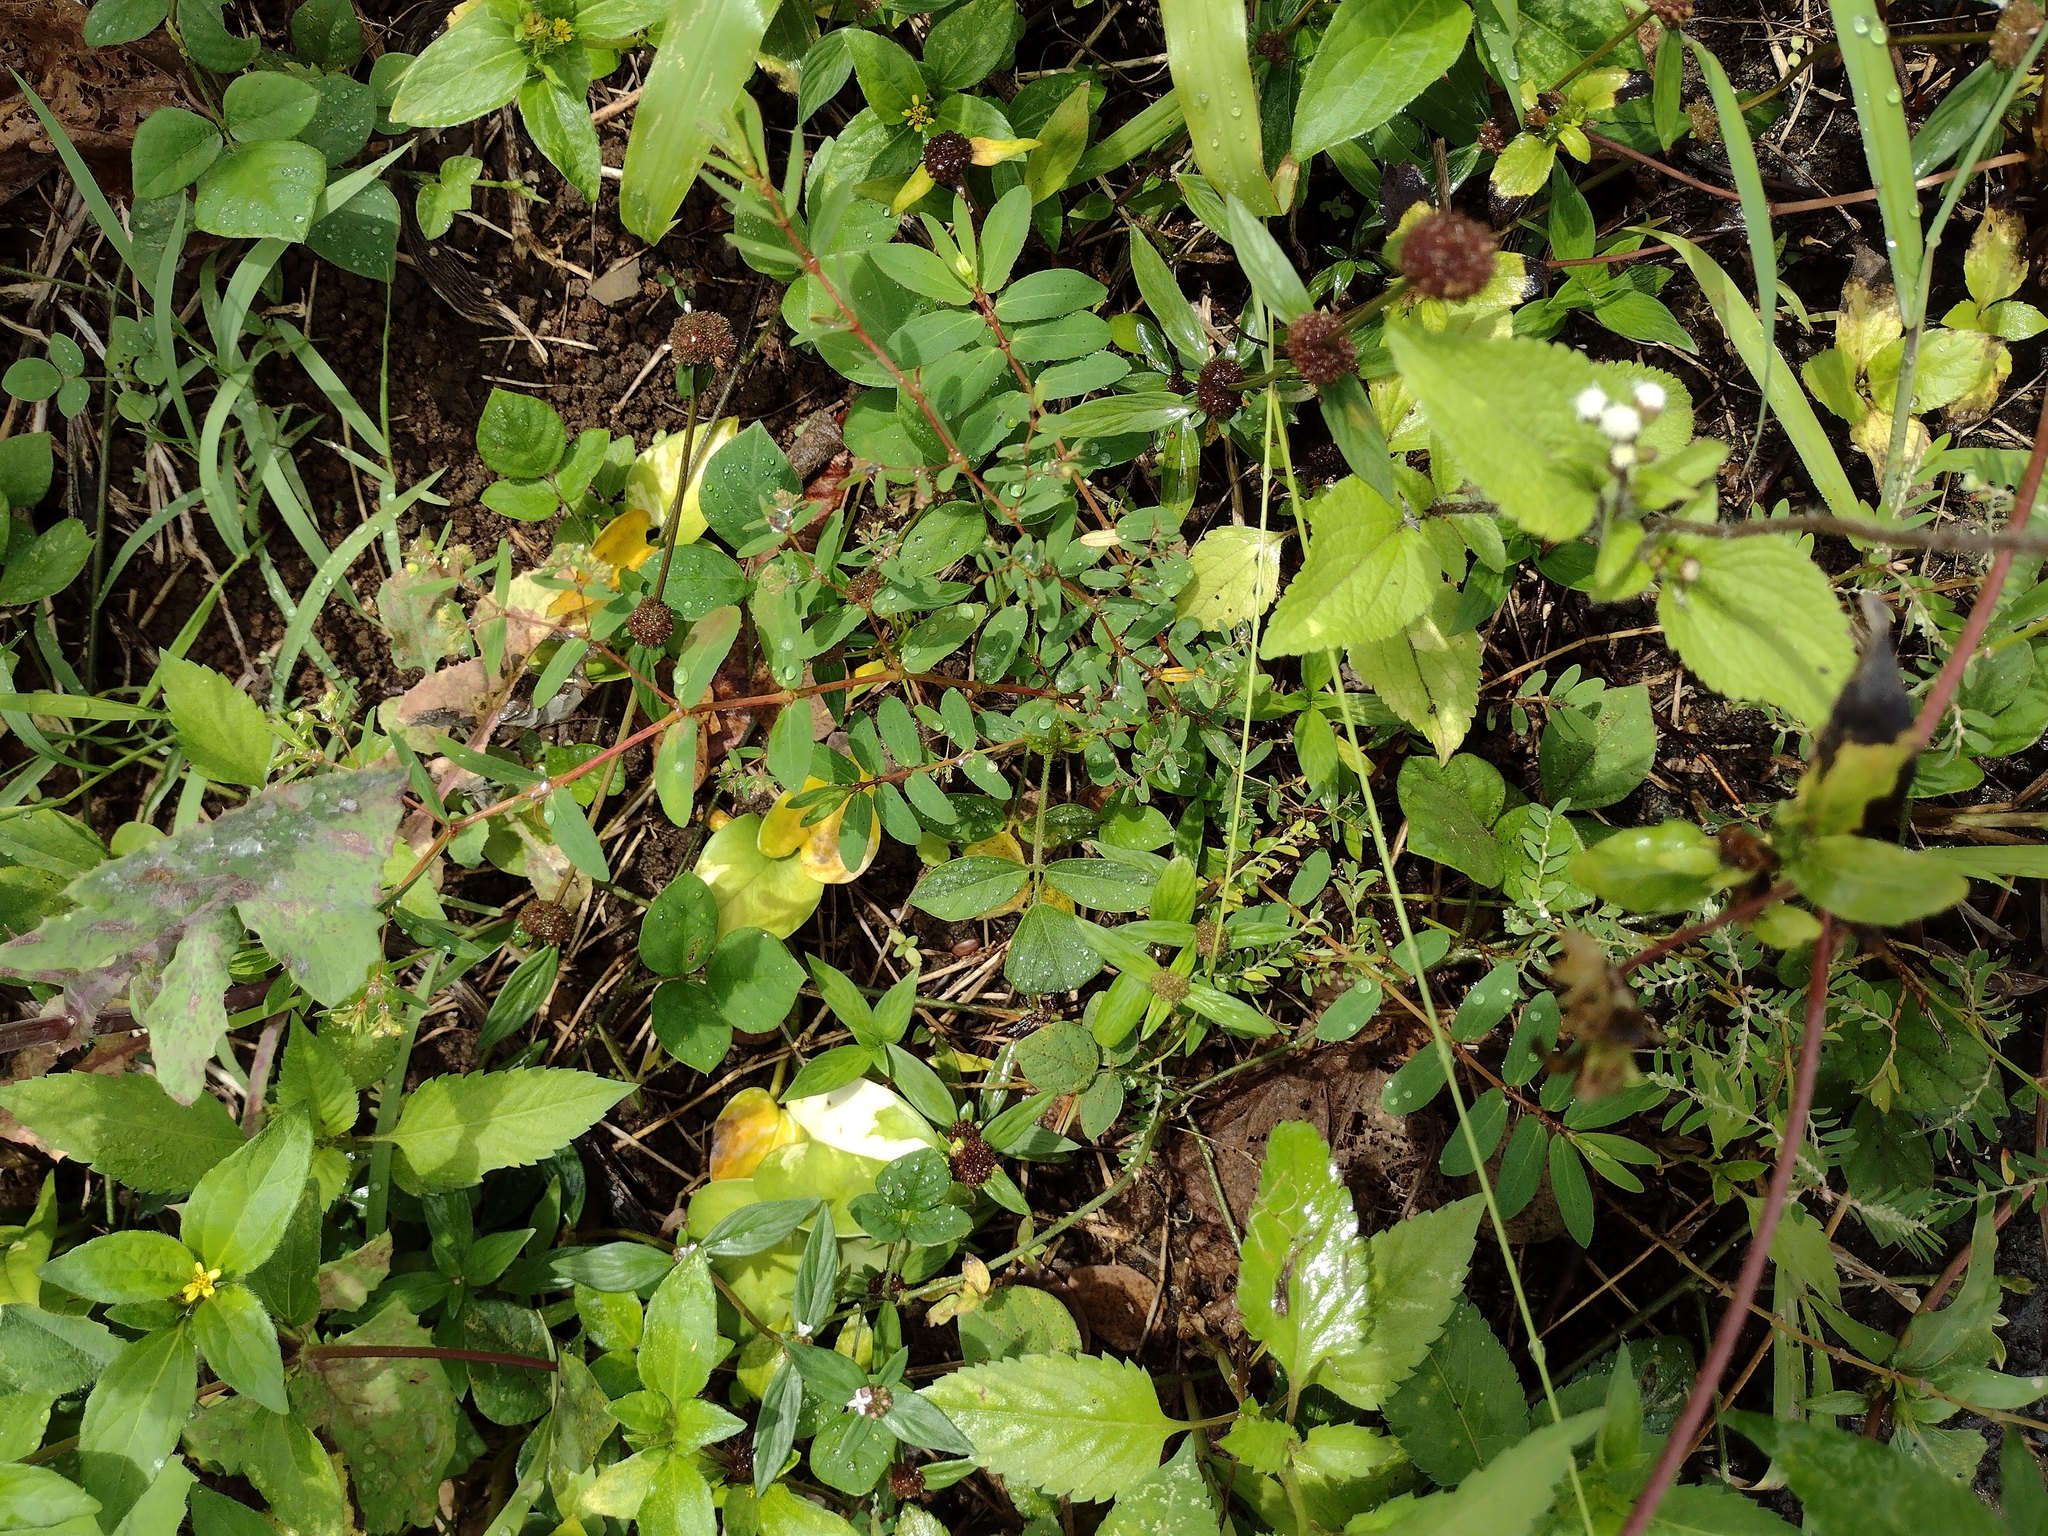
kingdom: Plantae
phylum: Tracheophyta
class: Magnoliopsida
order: Malpighiales
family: Euphorbiaceae
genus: Euphorbia
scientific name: Euphorbia hyssopifolia
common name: Hyssopleaf sandmat
